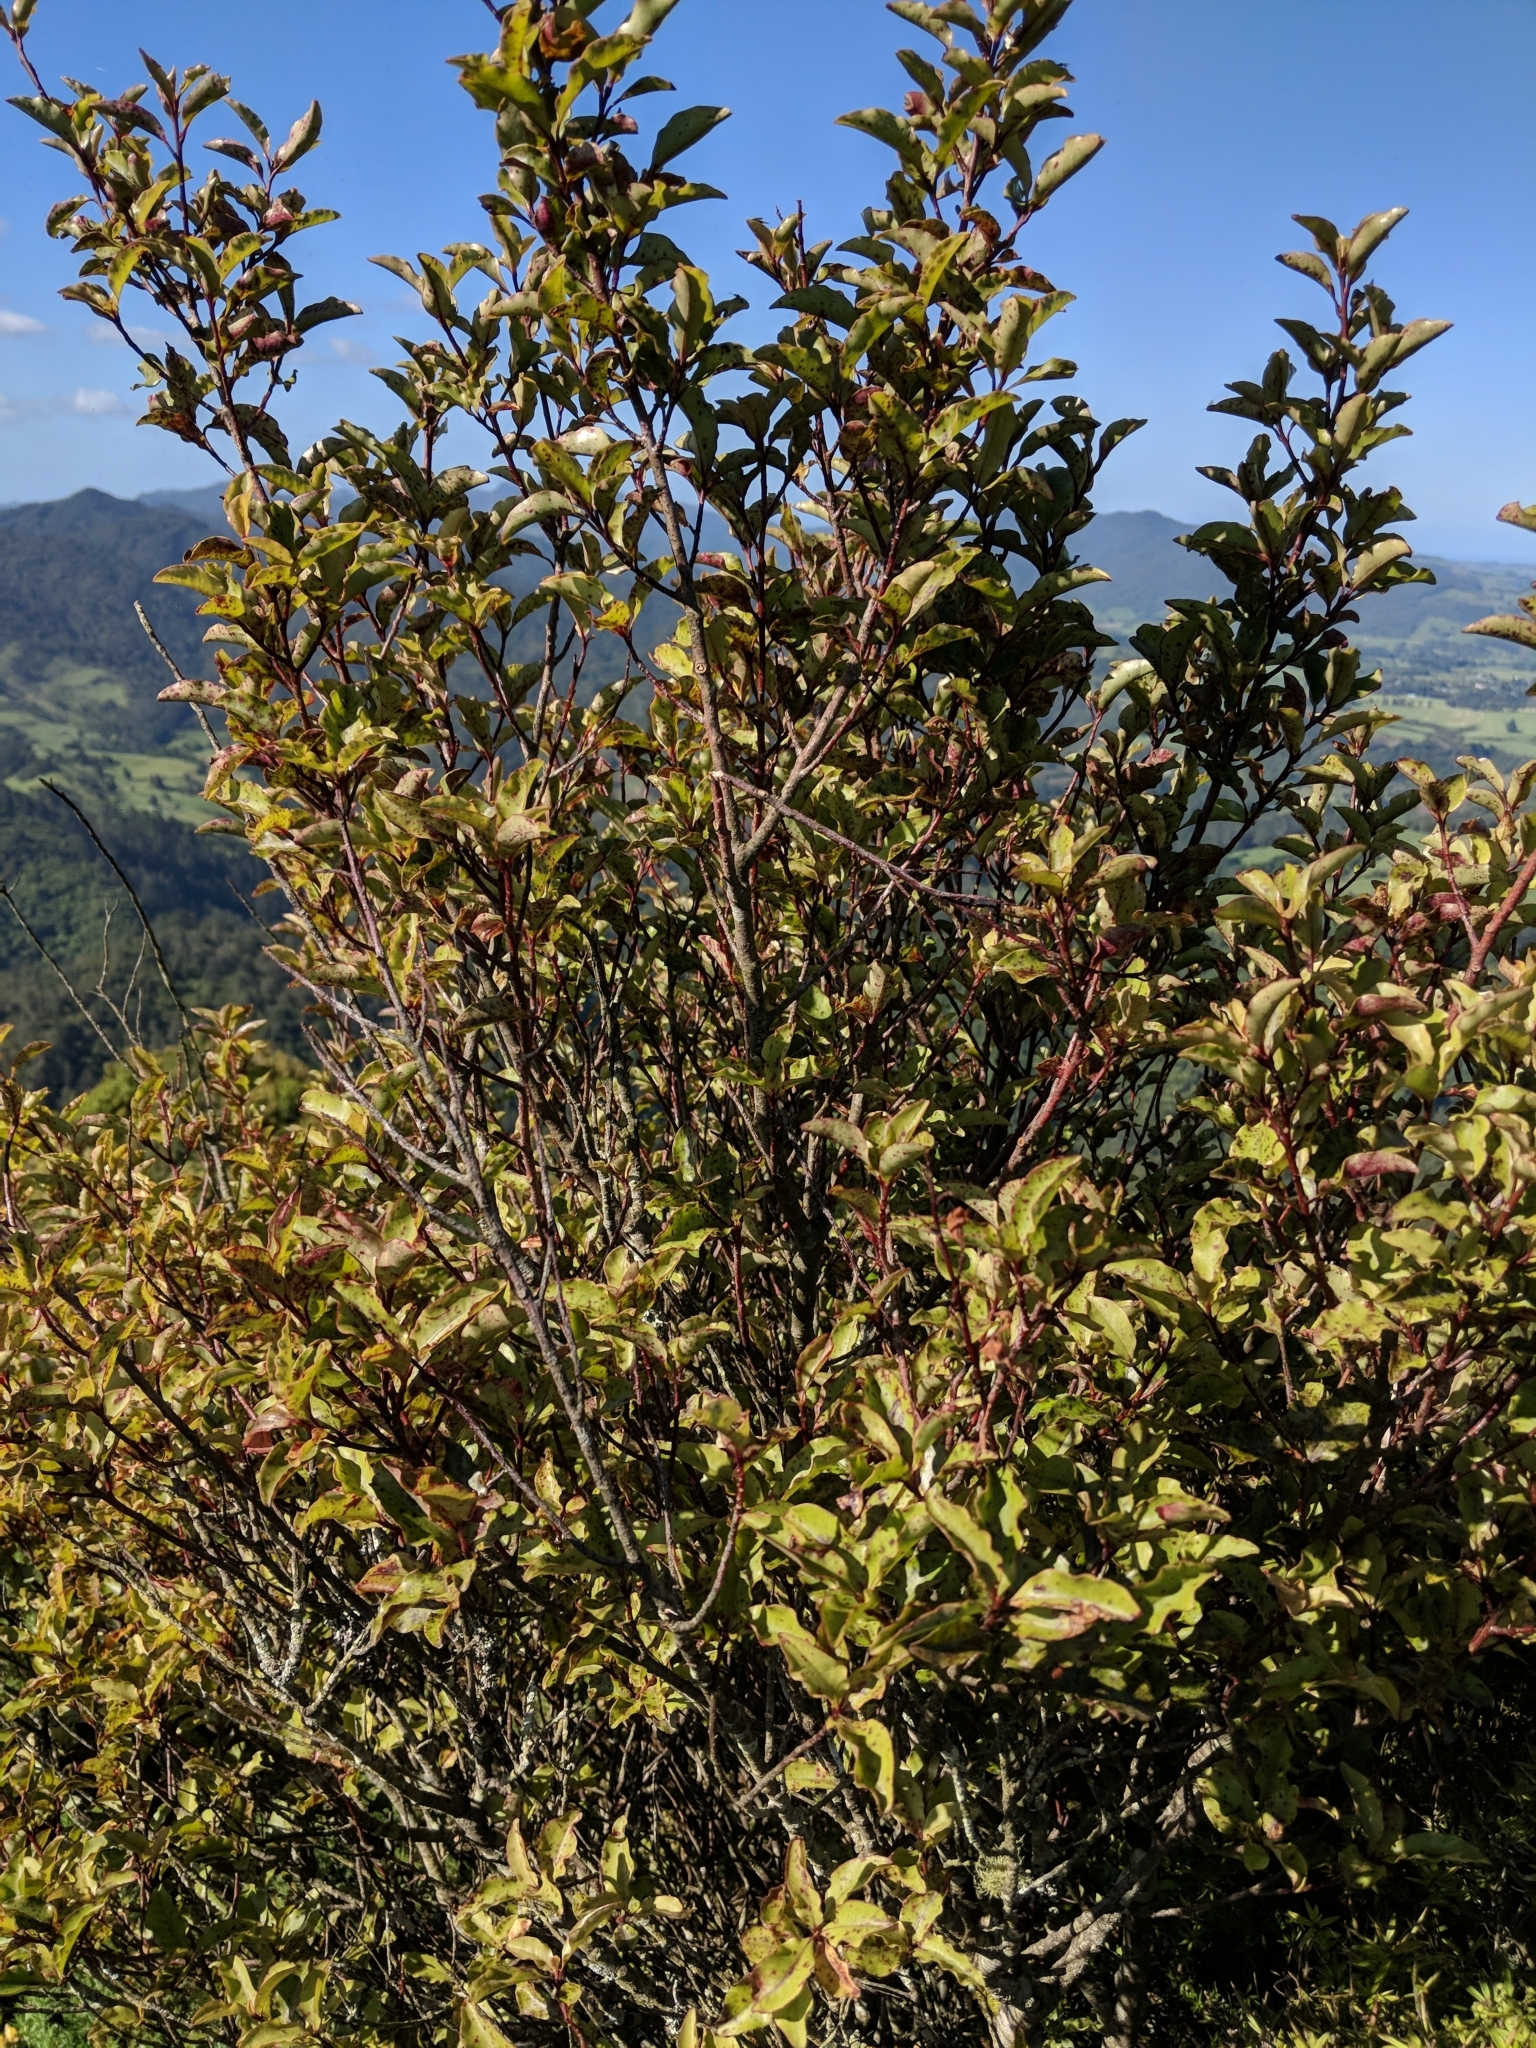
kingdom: Plantae
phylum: Tracheophyta
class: Magnoliopsida
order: Ericales
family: Primulaceae
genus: Myrsine
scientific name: Myrsine australis
